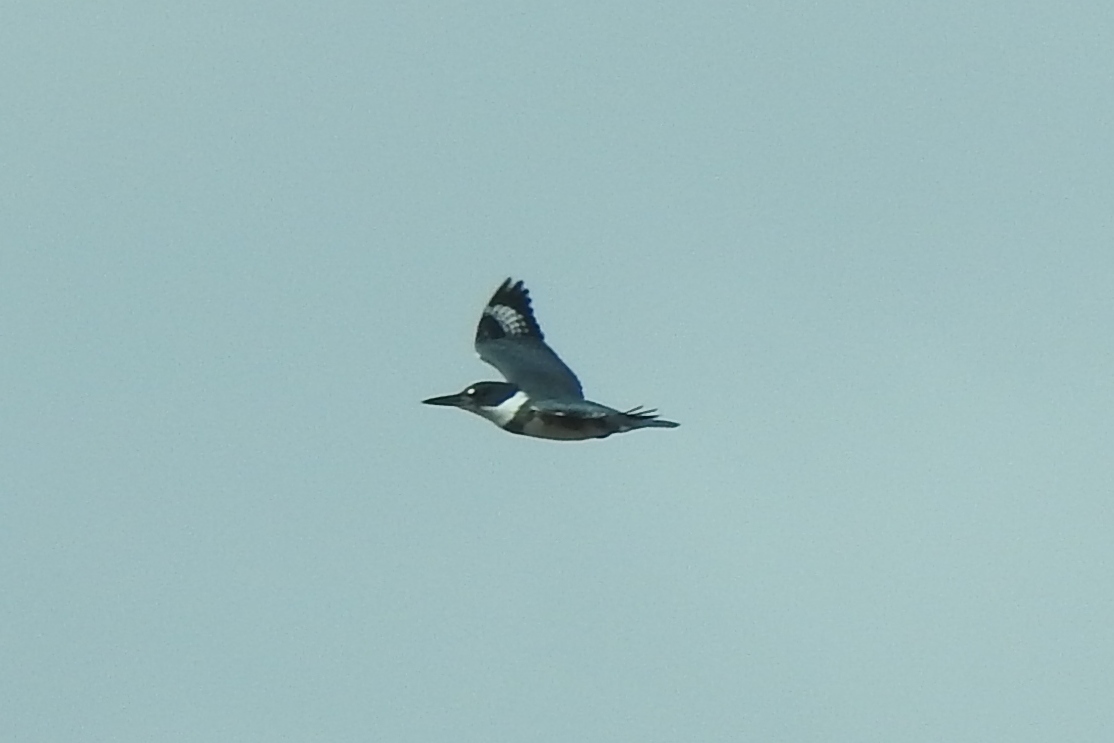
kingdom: Animalia
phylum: Chordata
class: Aves
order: Coraciiformes
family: Alcedinidae
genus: Megaceryle
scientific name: Megaceryle alcyon
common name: Belted kingfisher
